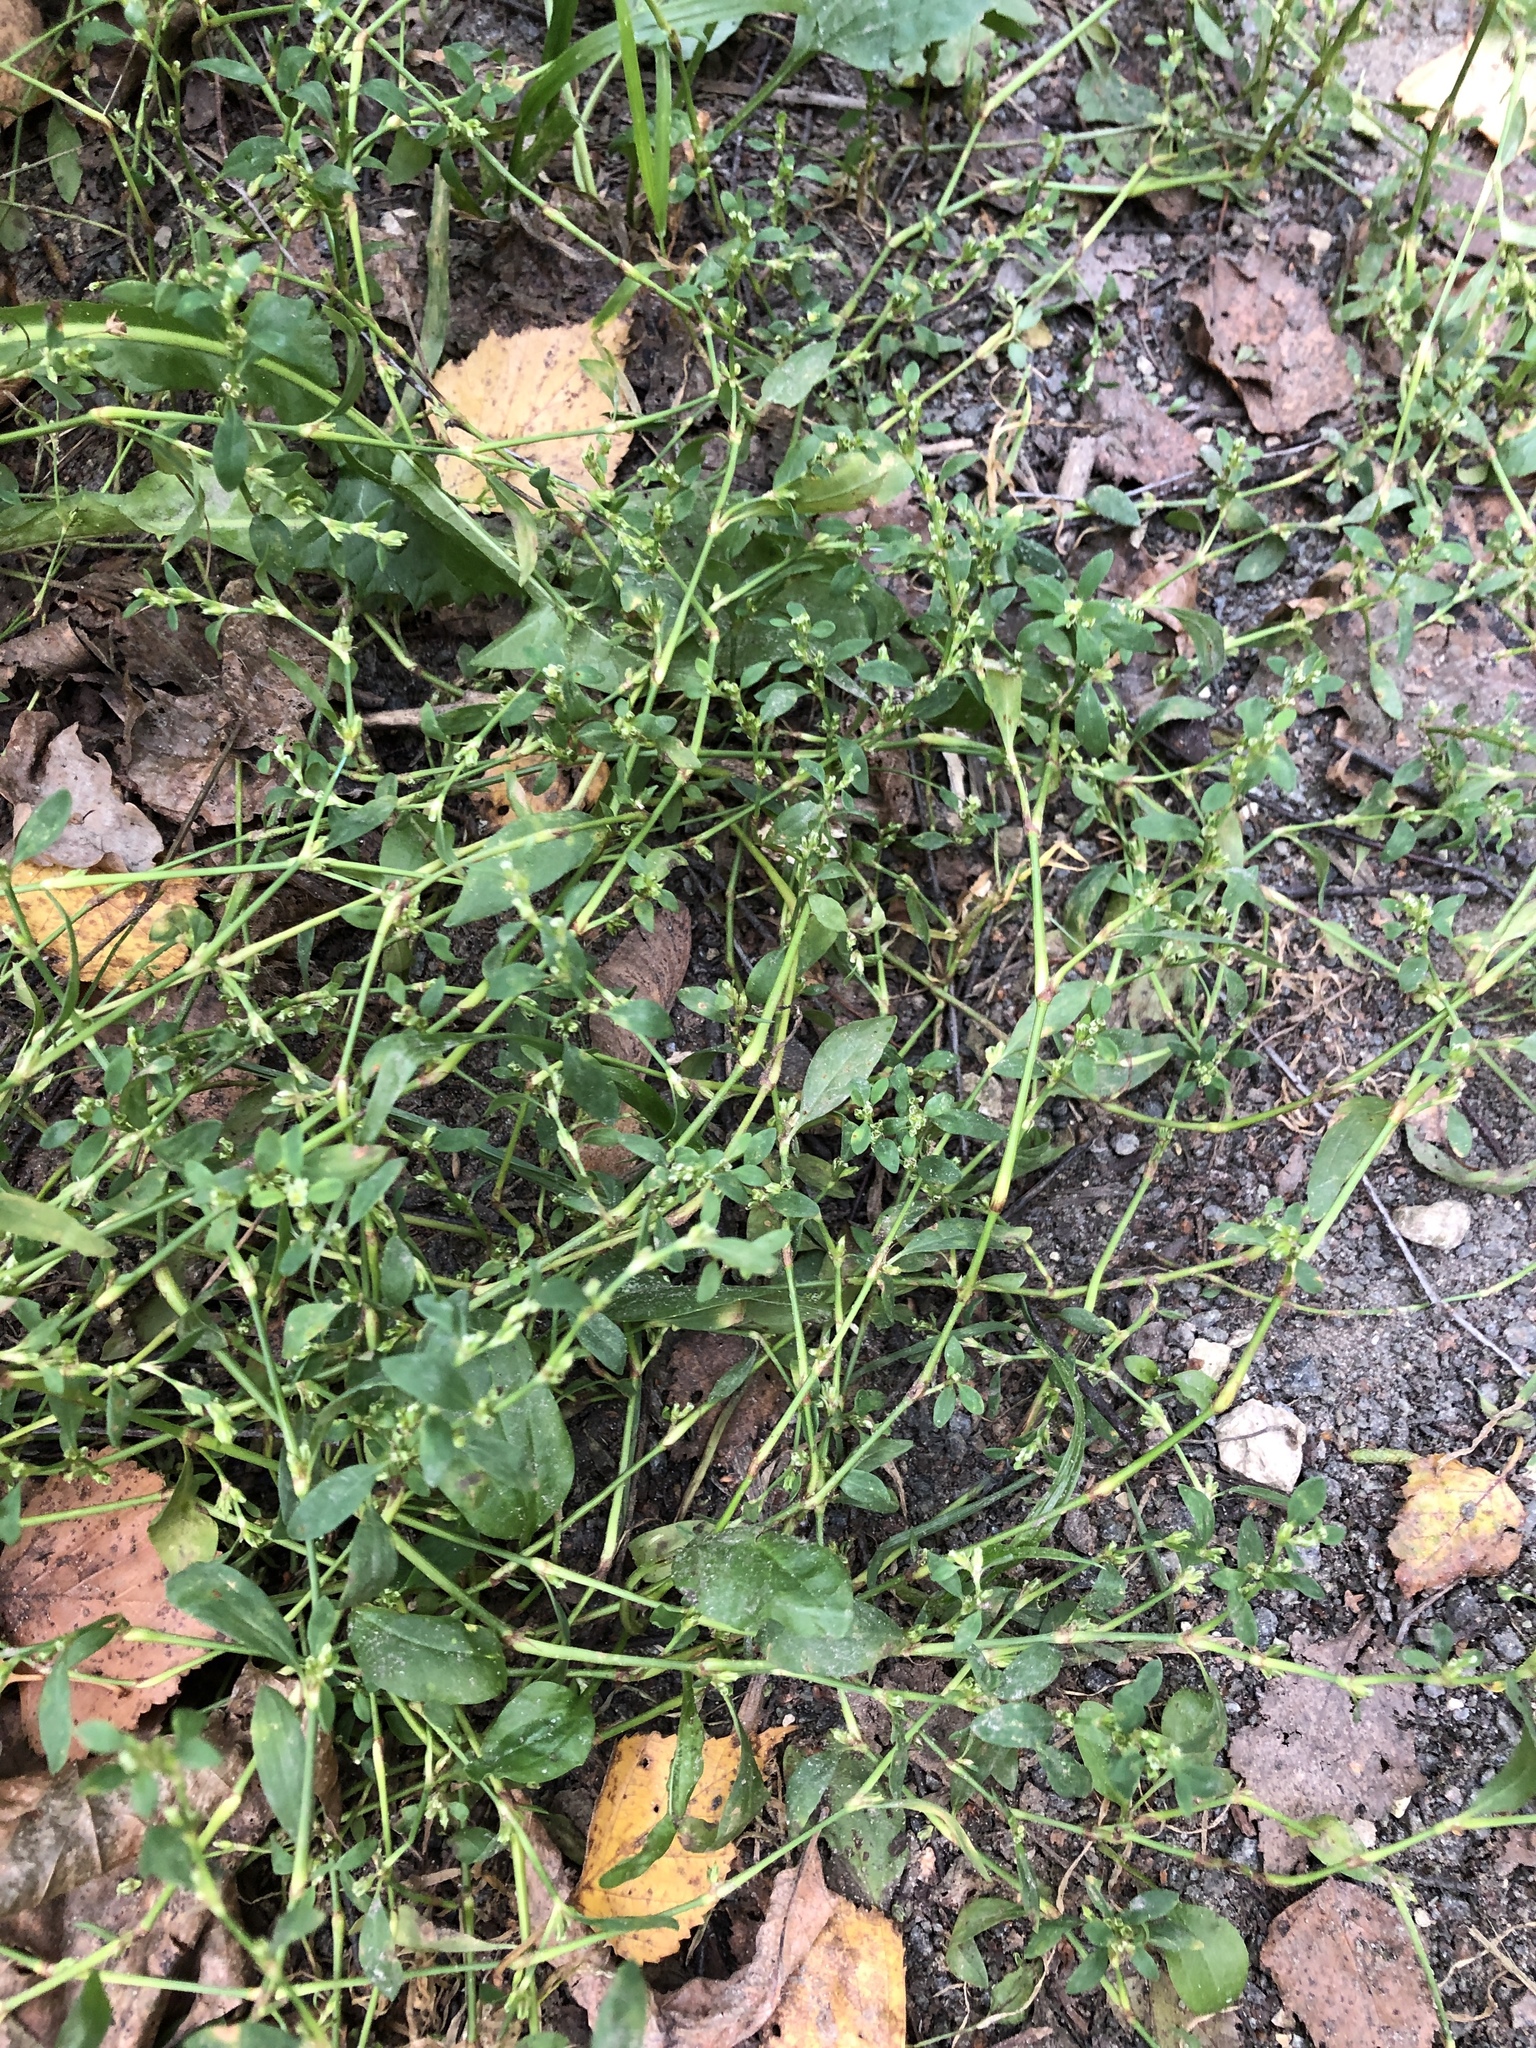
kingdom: Plantae
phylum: Tracheophyta
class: Magnoliopsida
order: Caryophyllales
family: Polygonaceae
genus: Polygonum
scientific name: Polygonum
